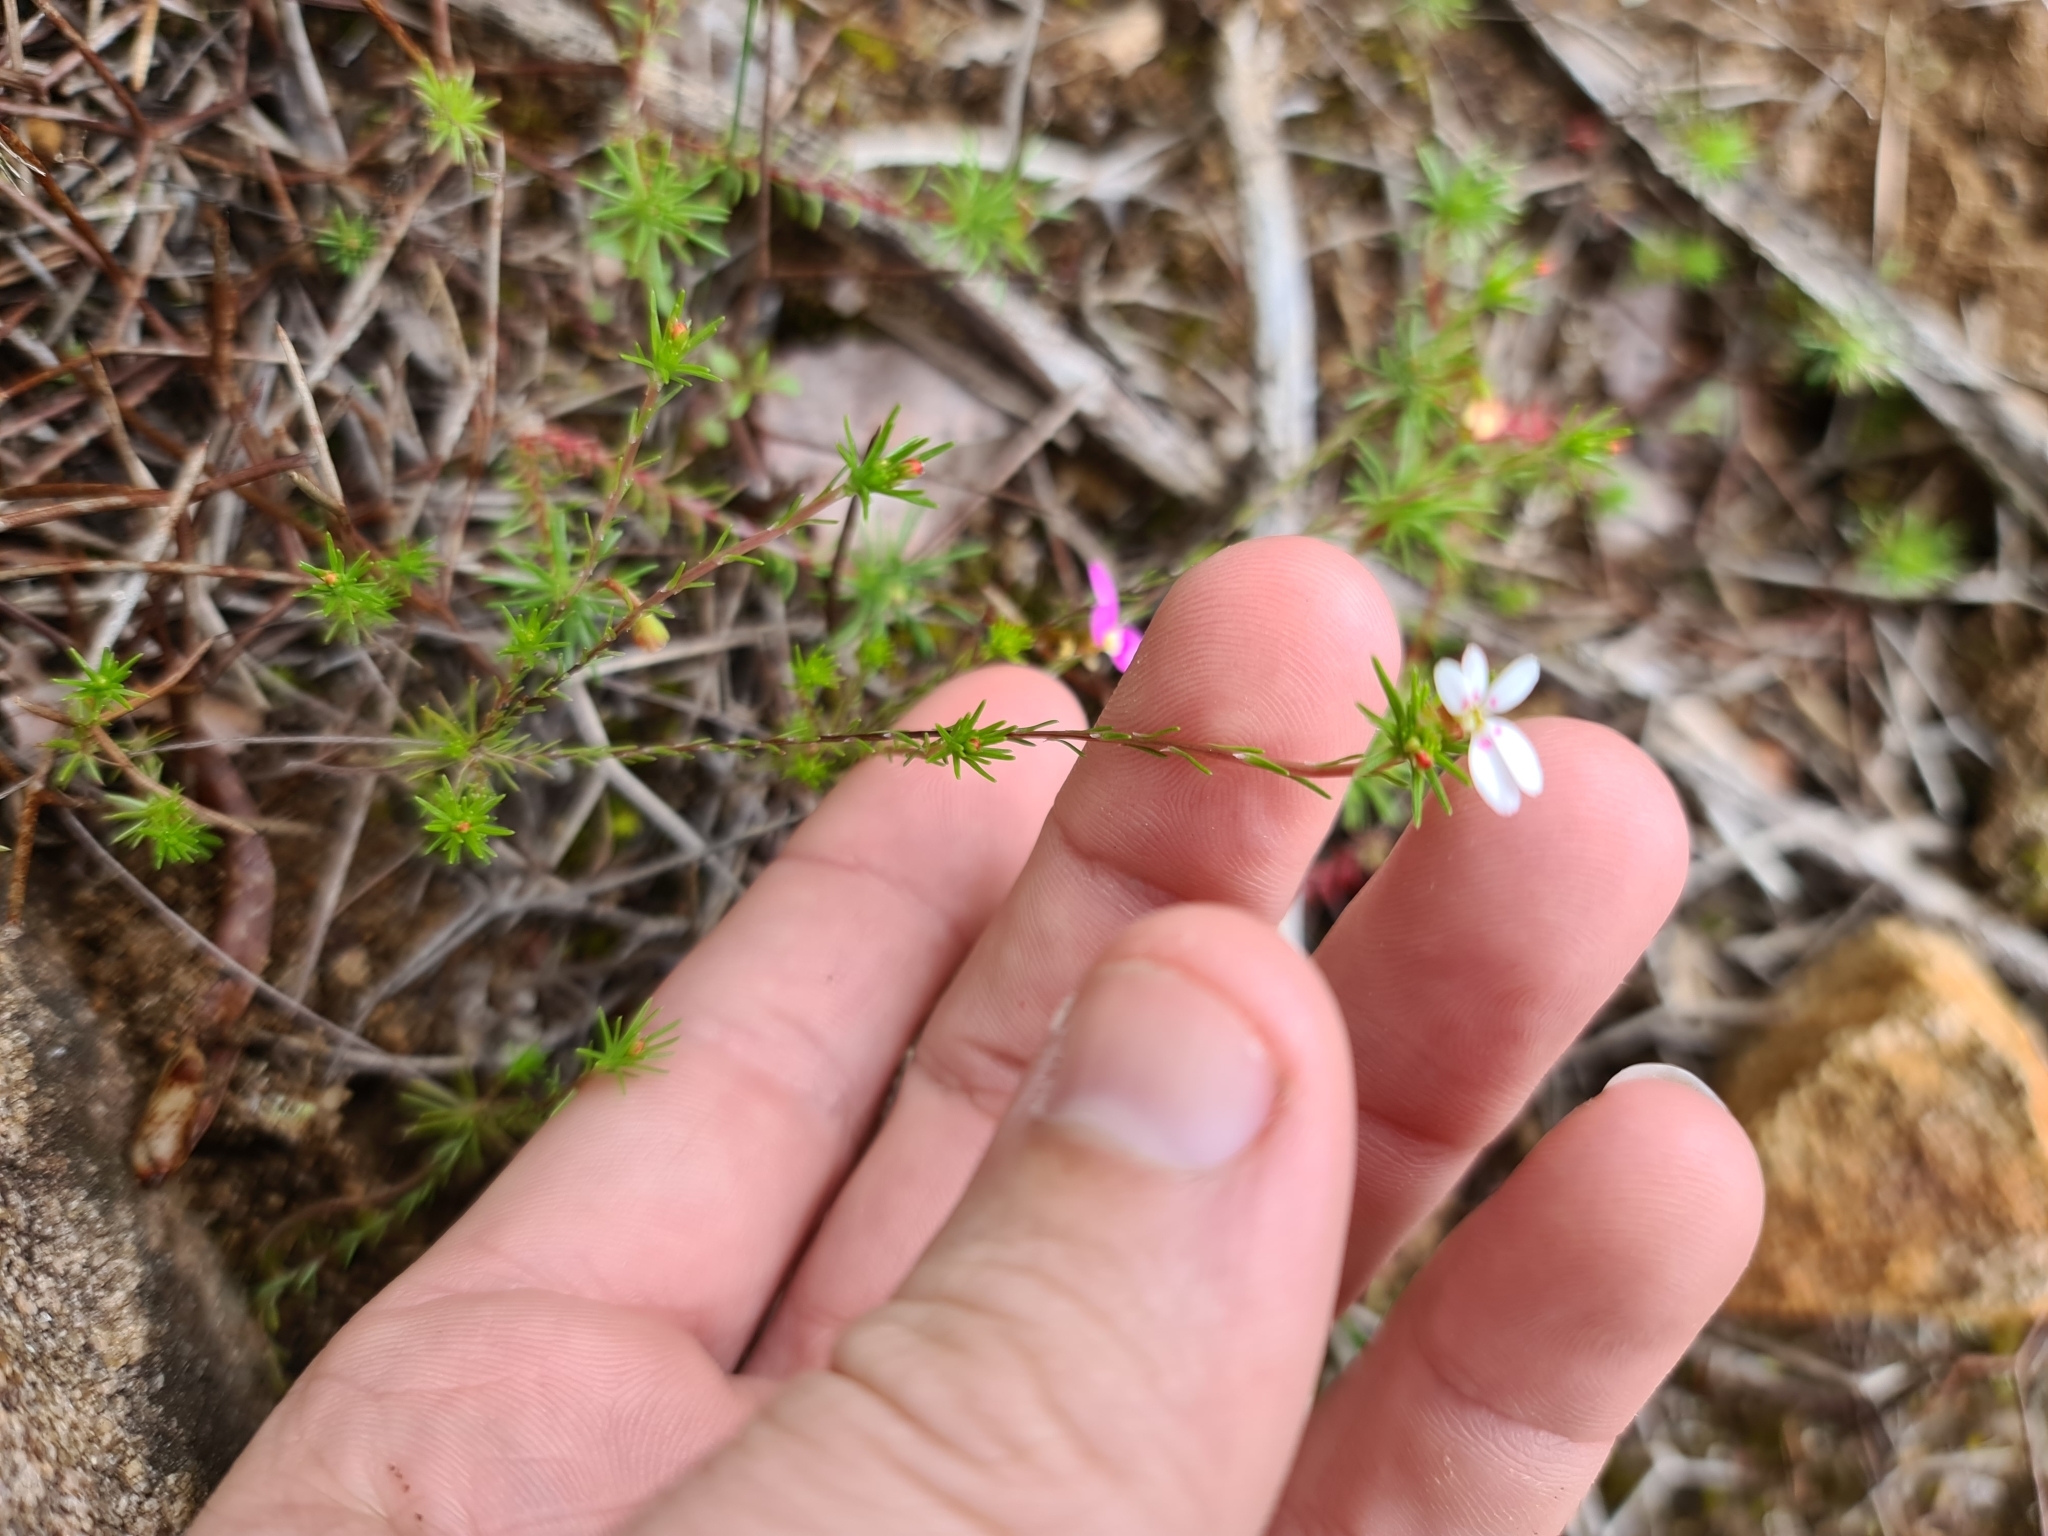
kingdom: Plantae
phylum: Tracheophyta
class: Magnoliopsida
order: Asterales
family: Stylidiaceae
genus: Stylidium
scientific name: Stylidium repens
